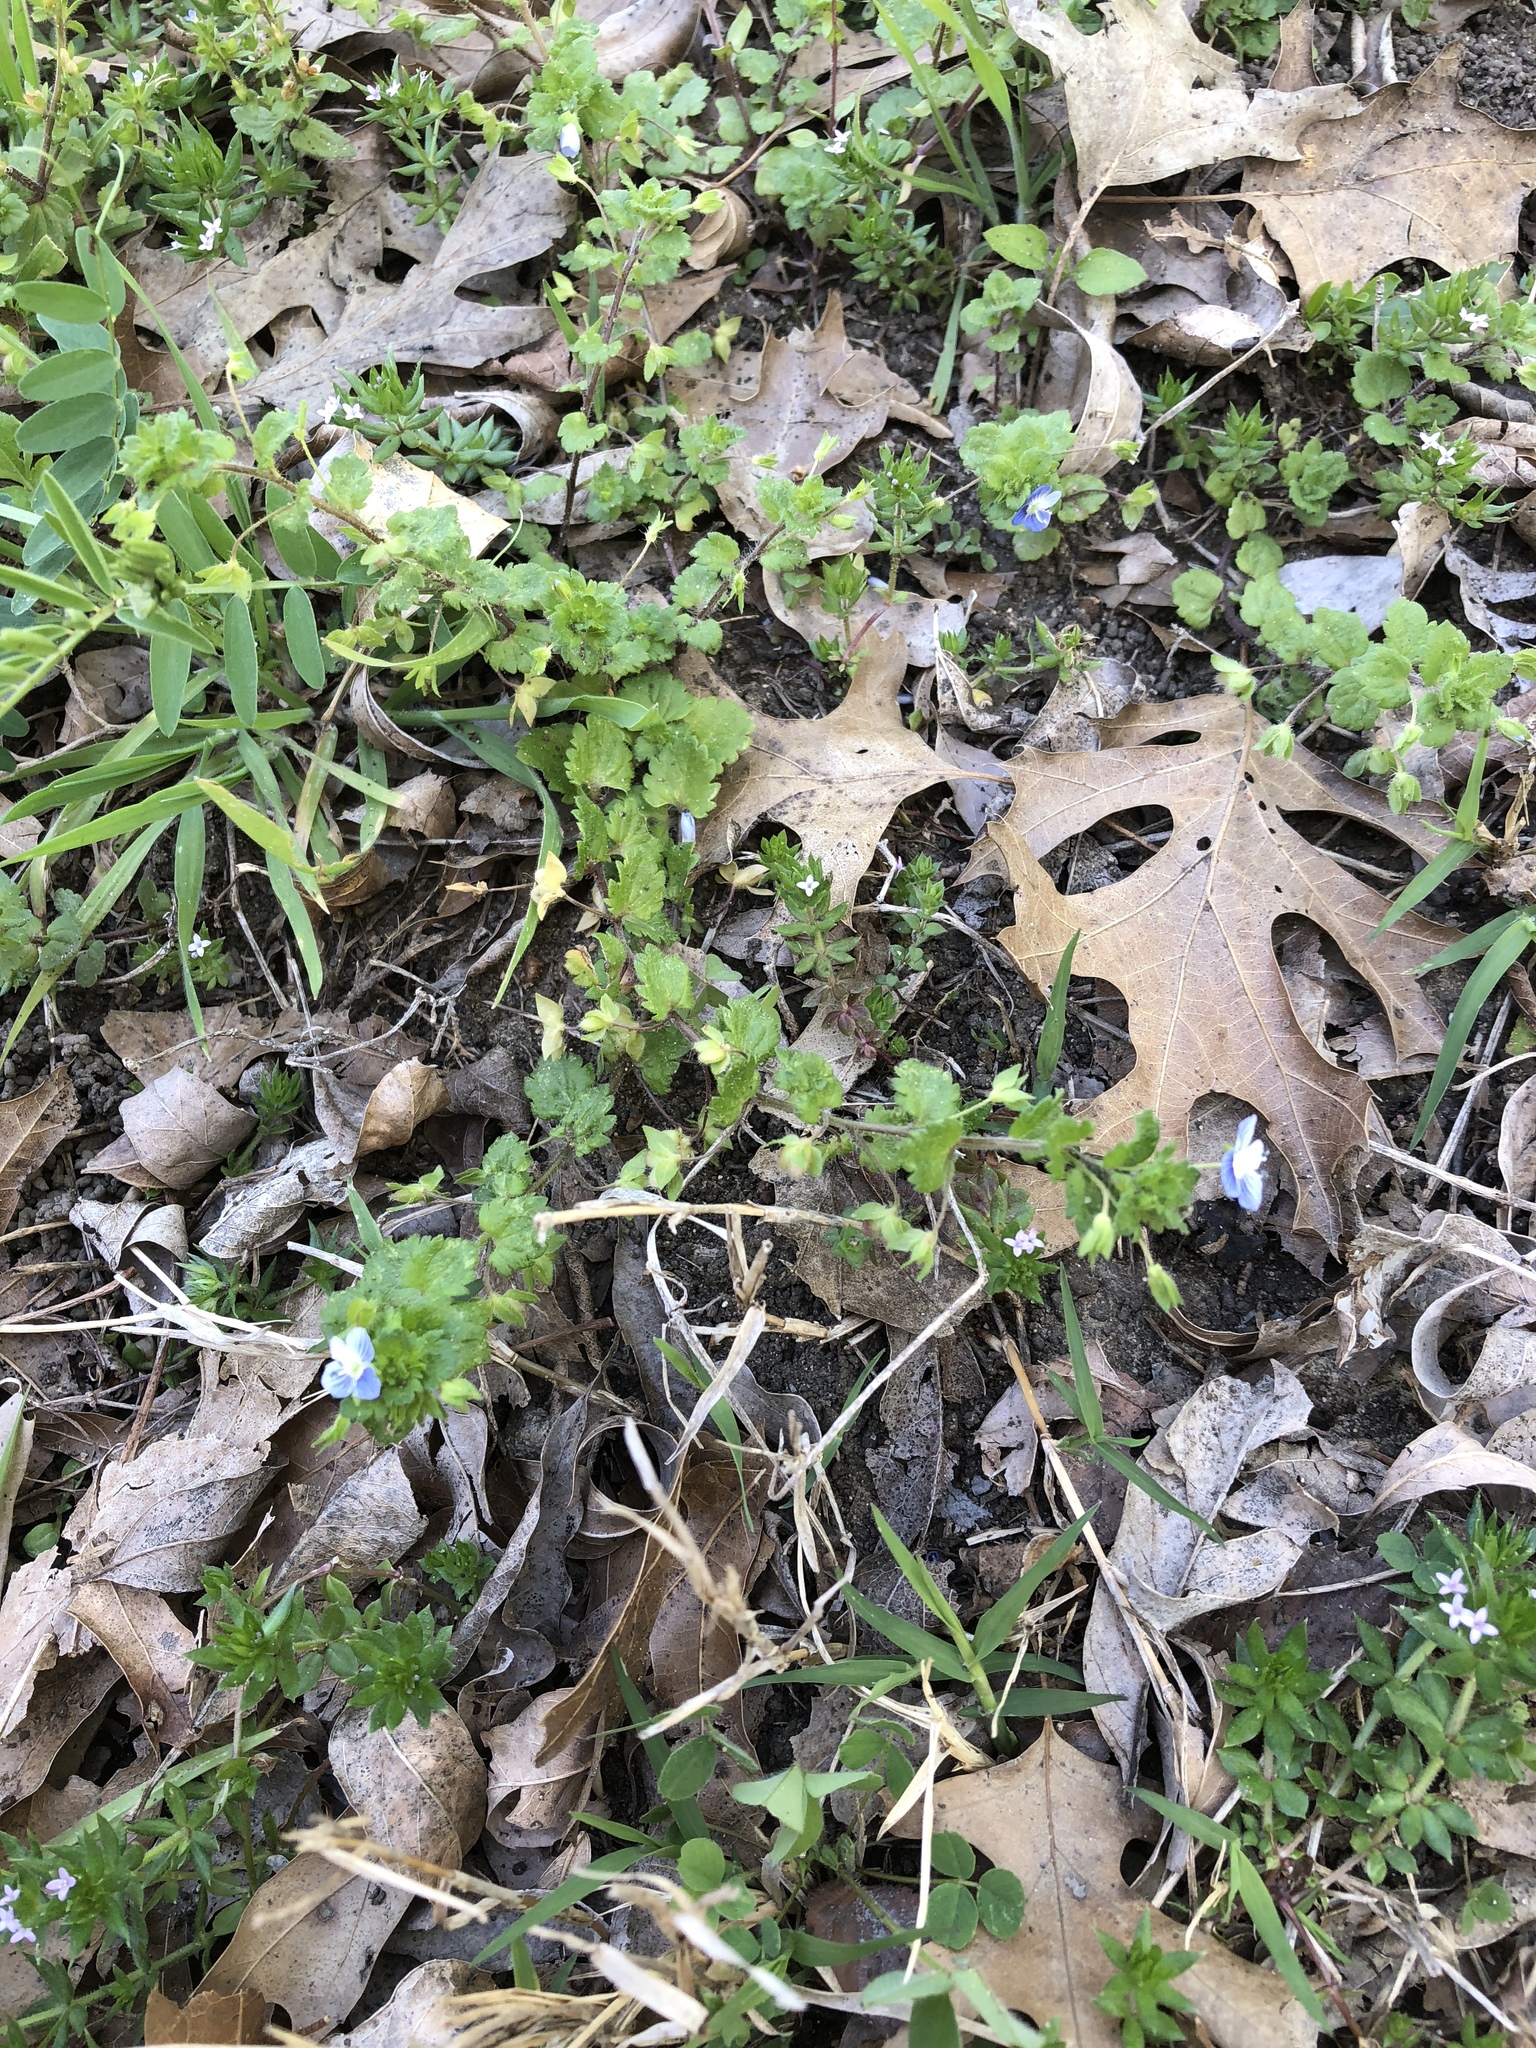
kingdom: Plantae
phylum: Tracheophyta
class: Magnoliopsida
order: Lamiales
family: Plantaginaceae
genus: Veronica
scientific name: Veronica persica
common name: Common field-speedwell
